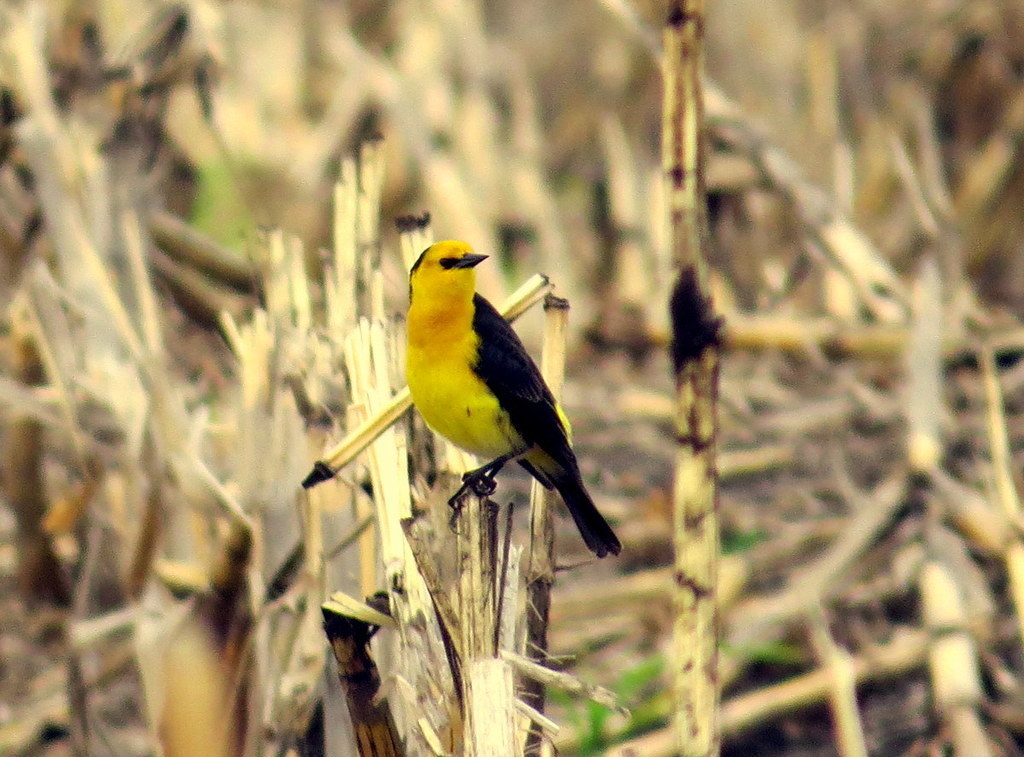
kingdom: Animalia
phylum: Chordata
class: Aves
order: Passeriformes
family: Icteridae
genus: Xanthopsar
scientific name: Xanthopsar flavus
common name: Saffron-cowled blackbird
